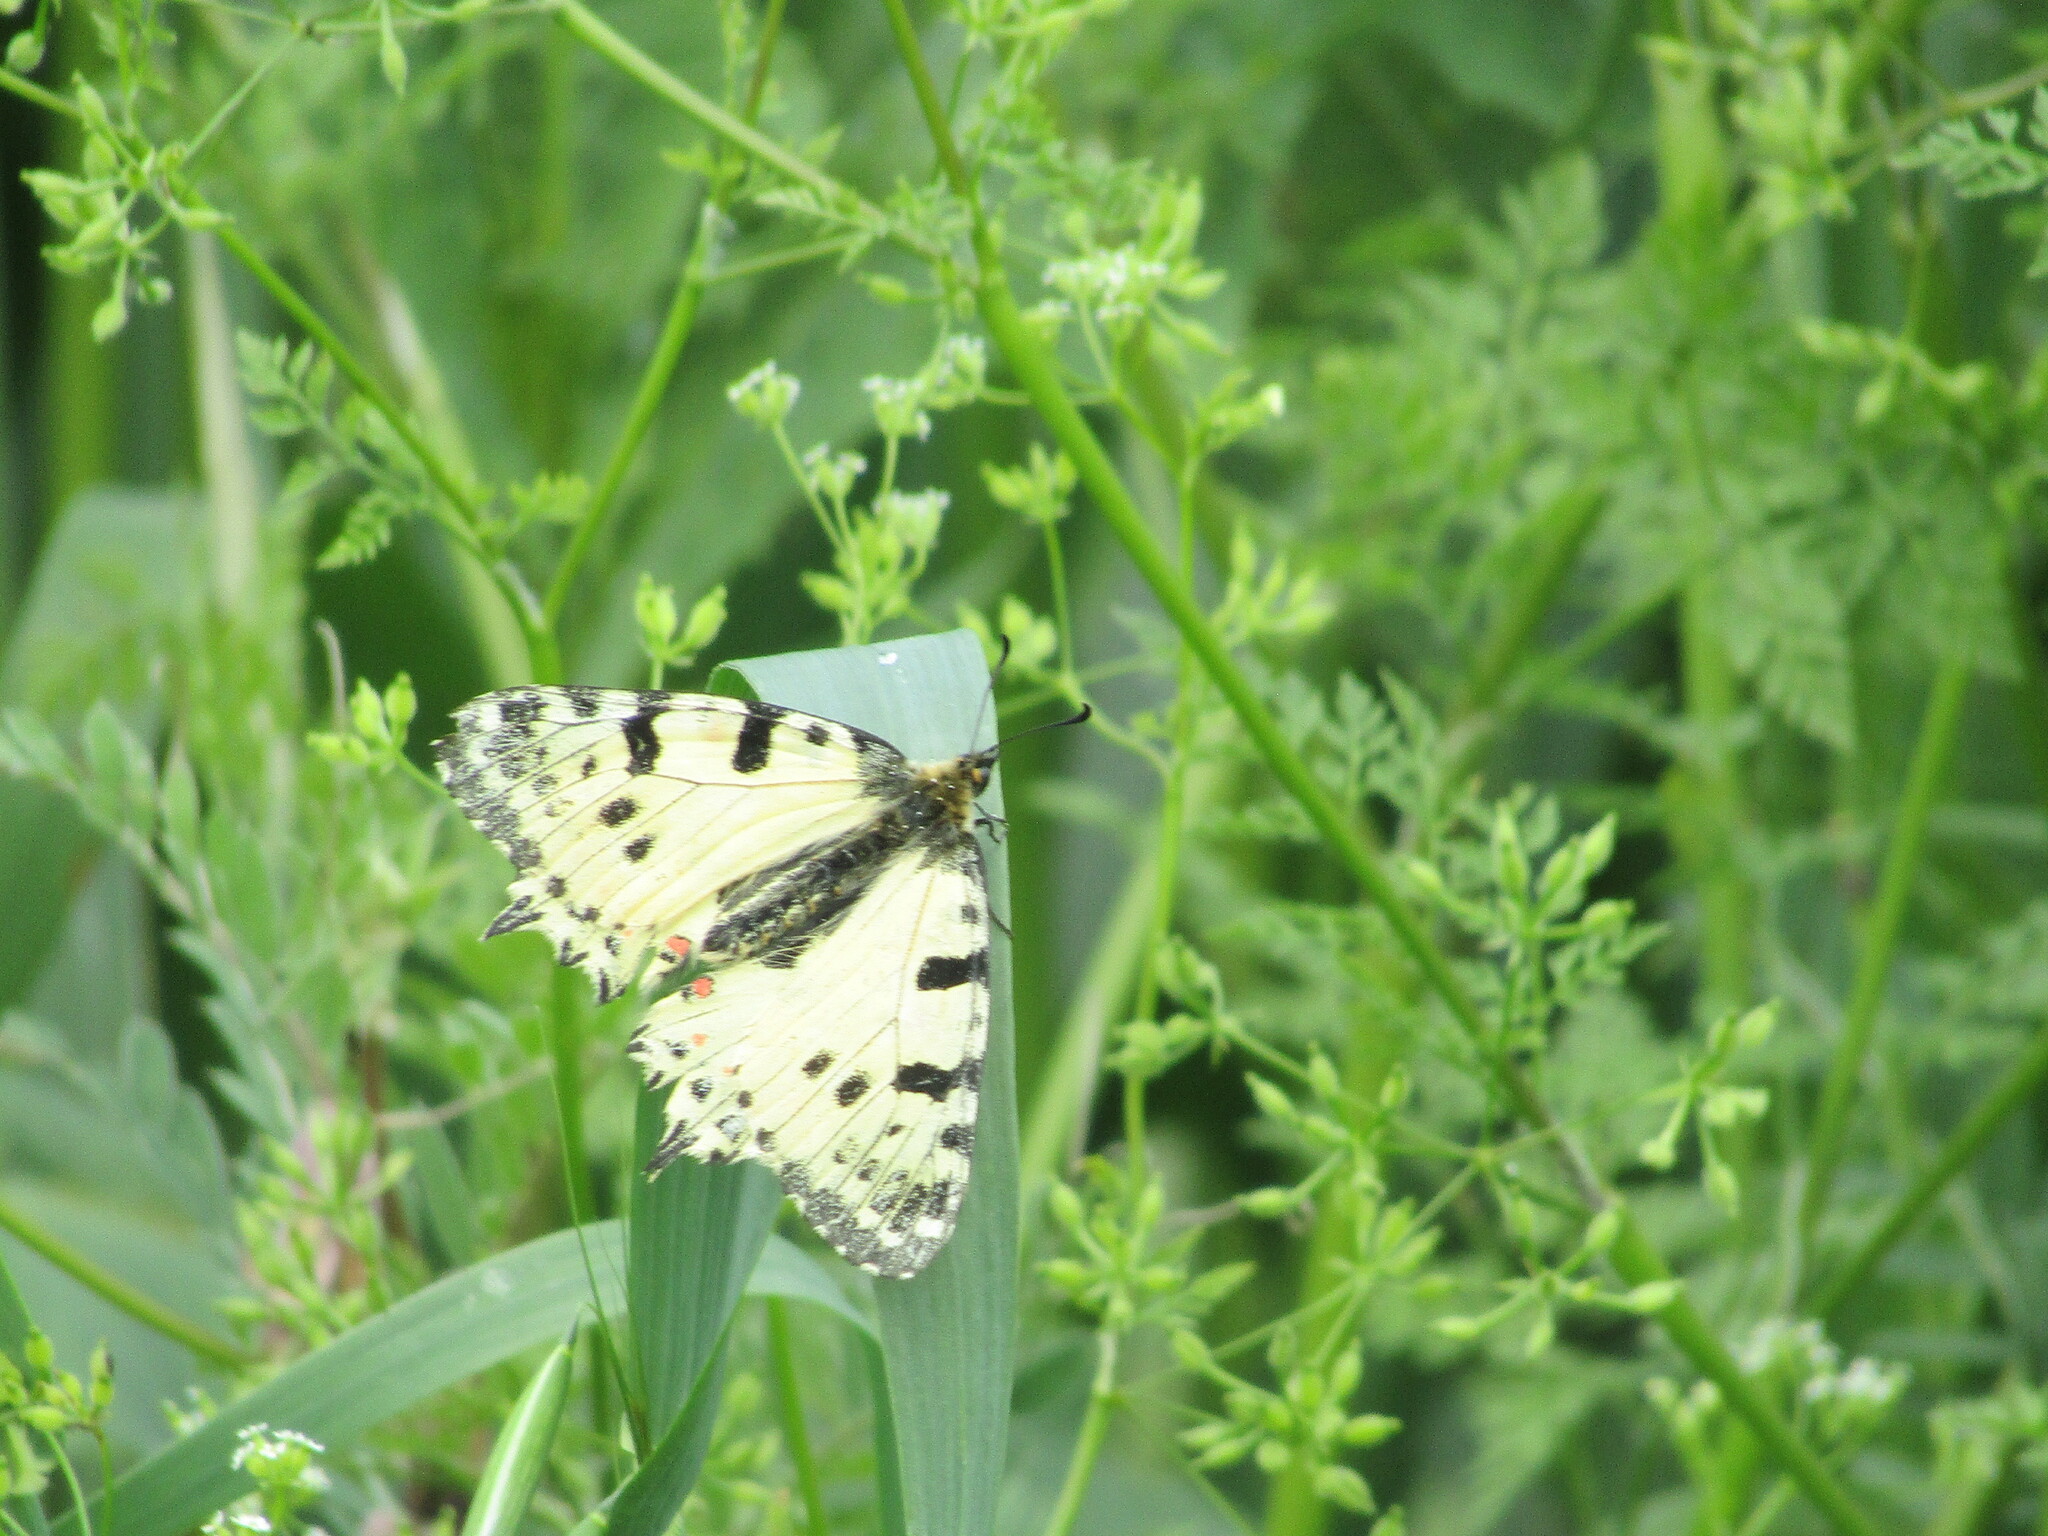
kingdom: Animalia
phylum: Arthropoda
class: Insecta
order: Lepidoptera
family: Papilionidae
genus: Zerynthia
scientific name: Zerynthia cerisy
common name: Eastern festoon
